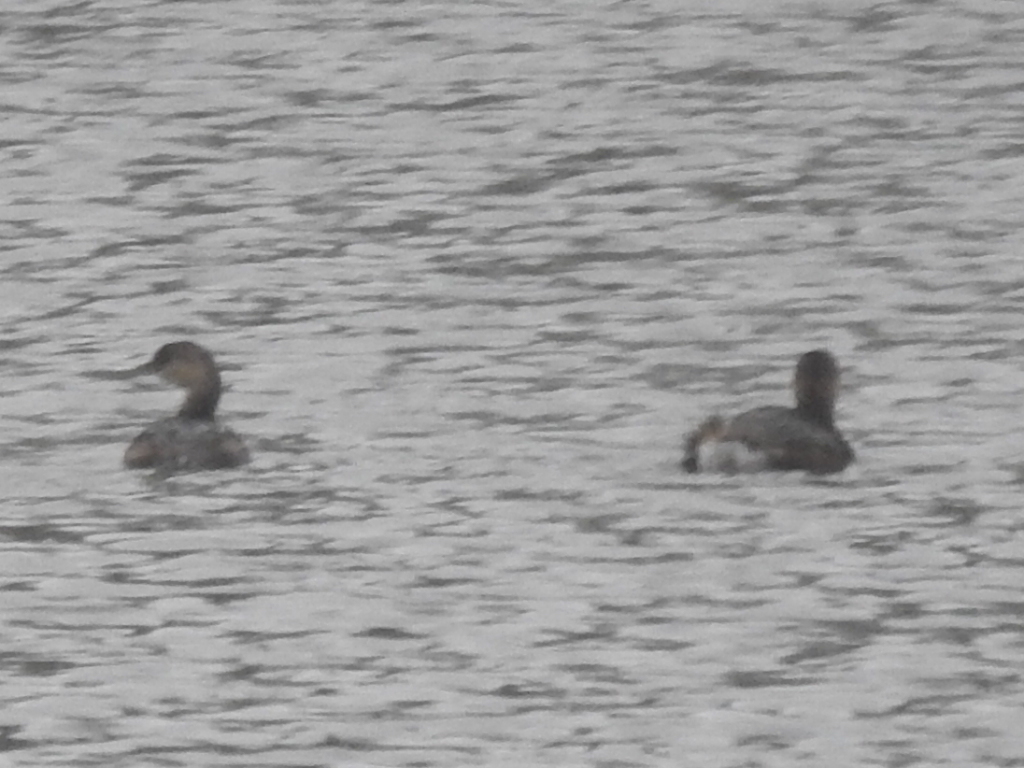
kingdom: Animalia
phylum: Chordata
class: Aves
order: Podicipediformes
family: Podicipedidae
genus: Podilymbus
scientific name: Podilymbus podiceps
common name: Pied-billed grebe
